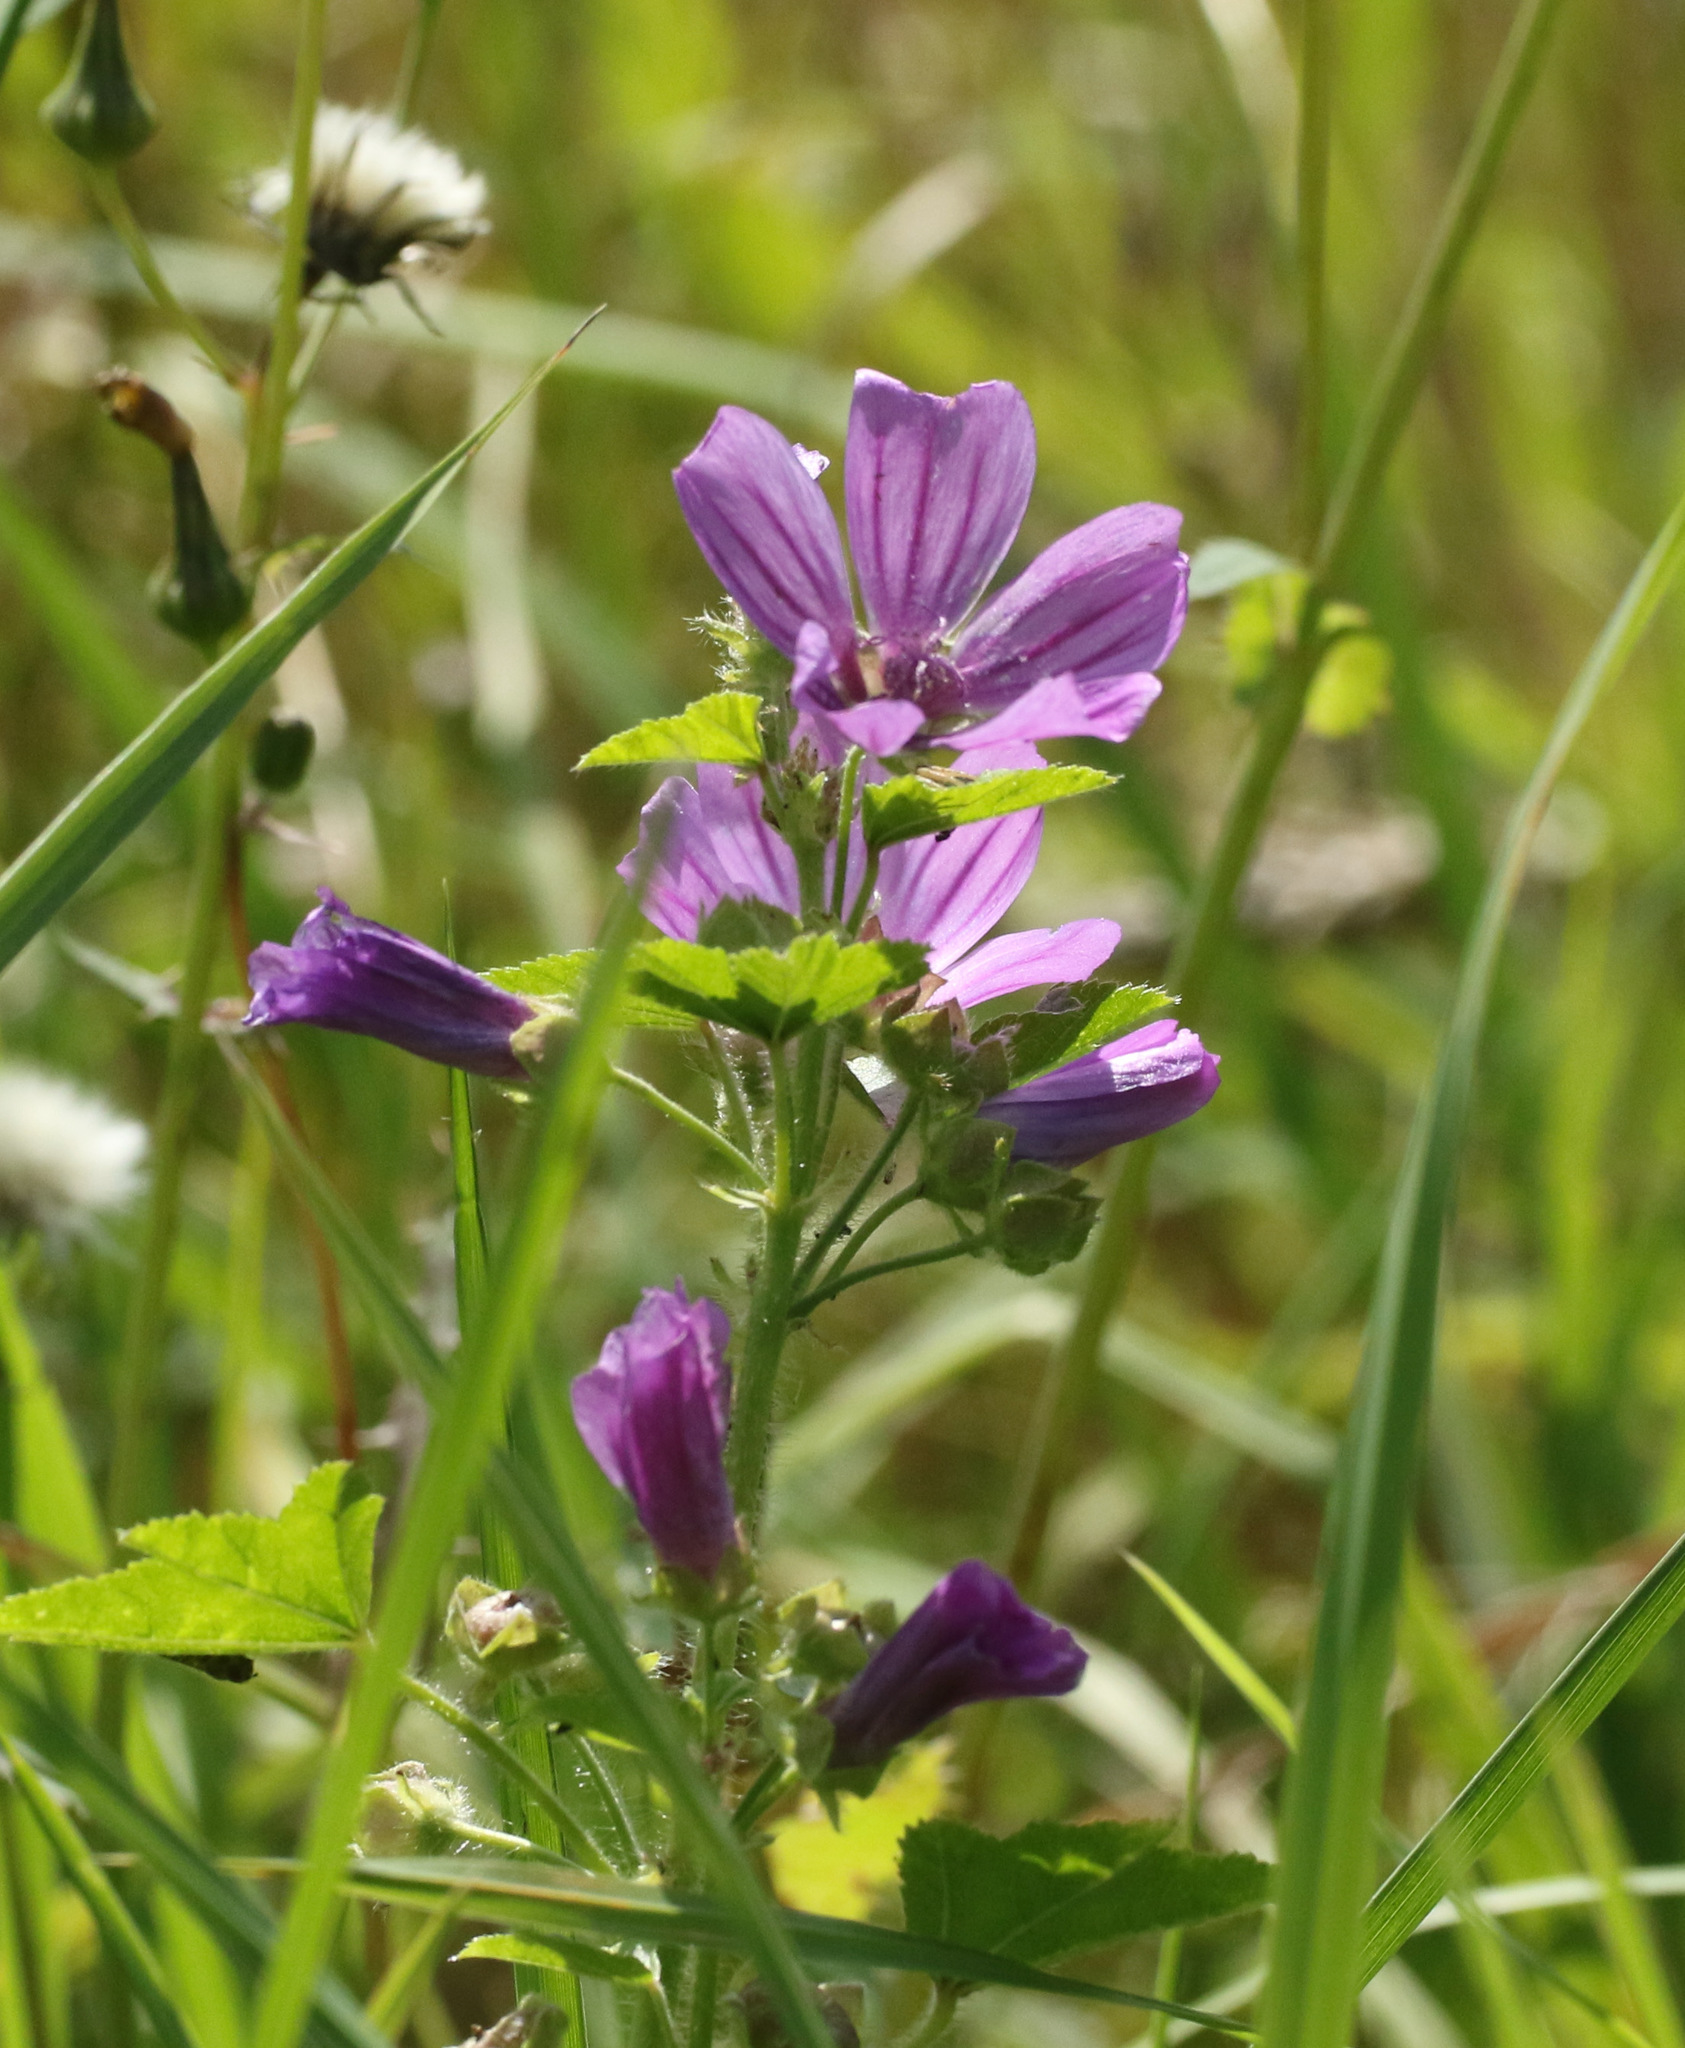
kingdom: Plantae
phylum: Tracheophyta
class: Magnoliopsida
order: Malvales
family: Malvaceae
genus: Malva
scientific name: Malva sylvestris
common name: Common mallow
